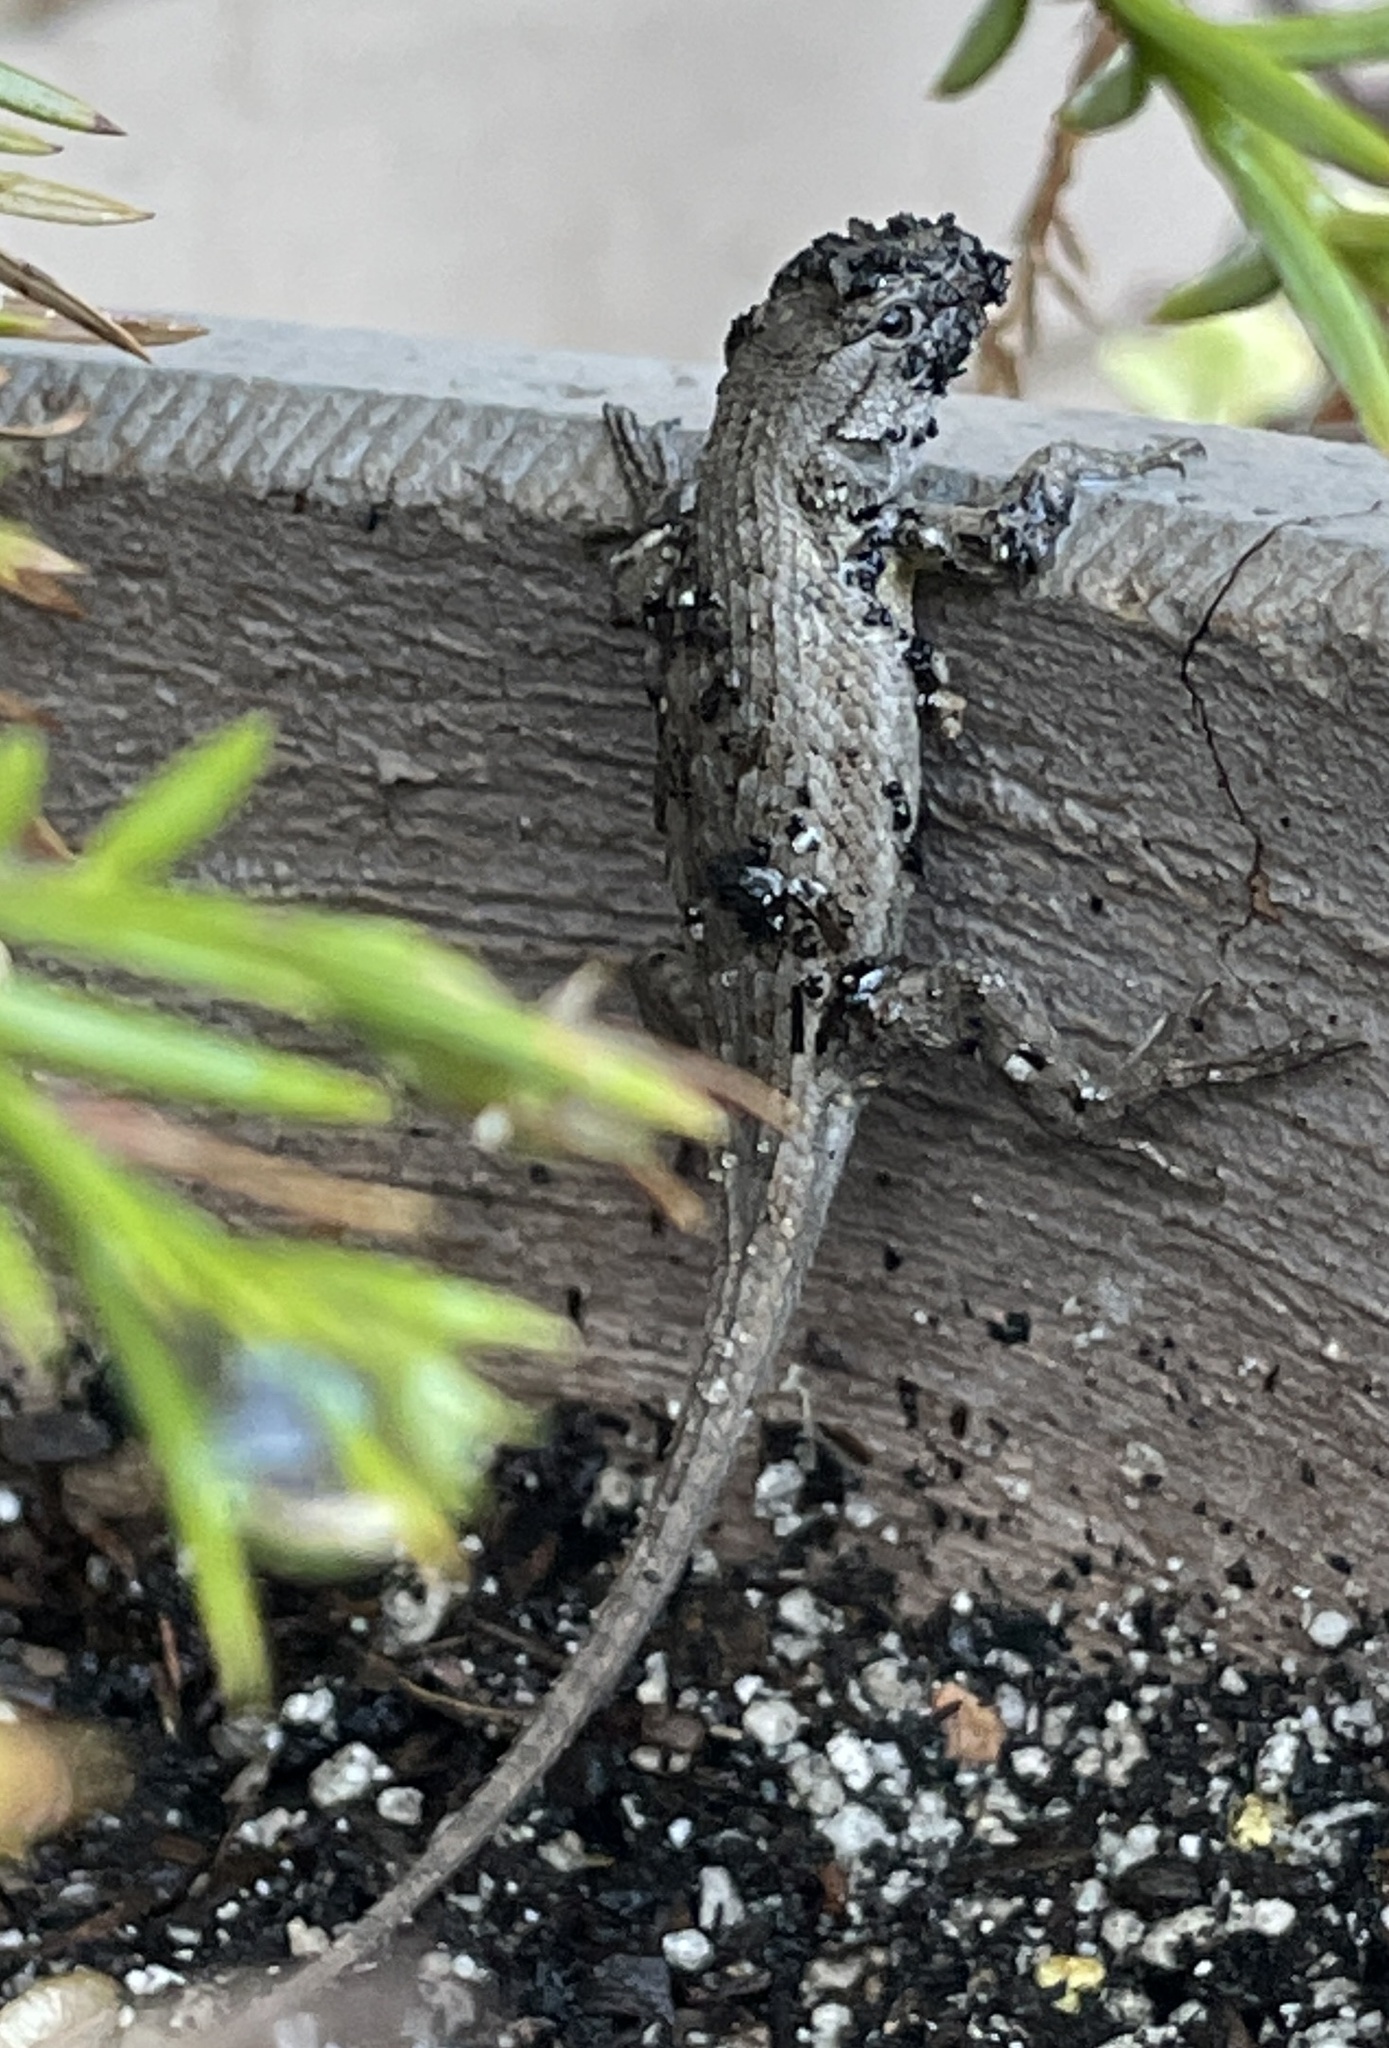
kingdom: Animalia
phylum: Chordata
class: Squamata
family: Phrynosomatidae
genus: Sceloporus
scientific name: Sceloporus occidentalis
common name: Western fence lizard
